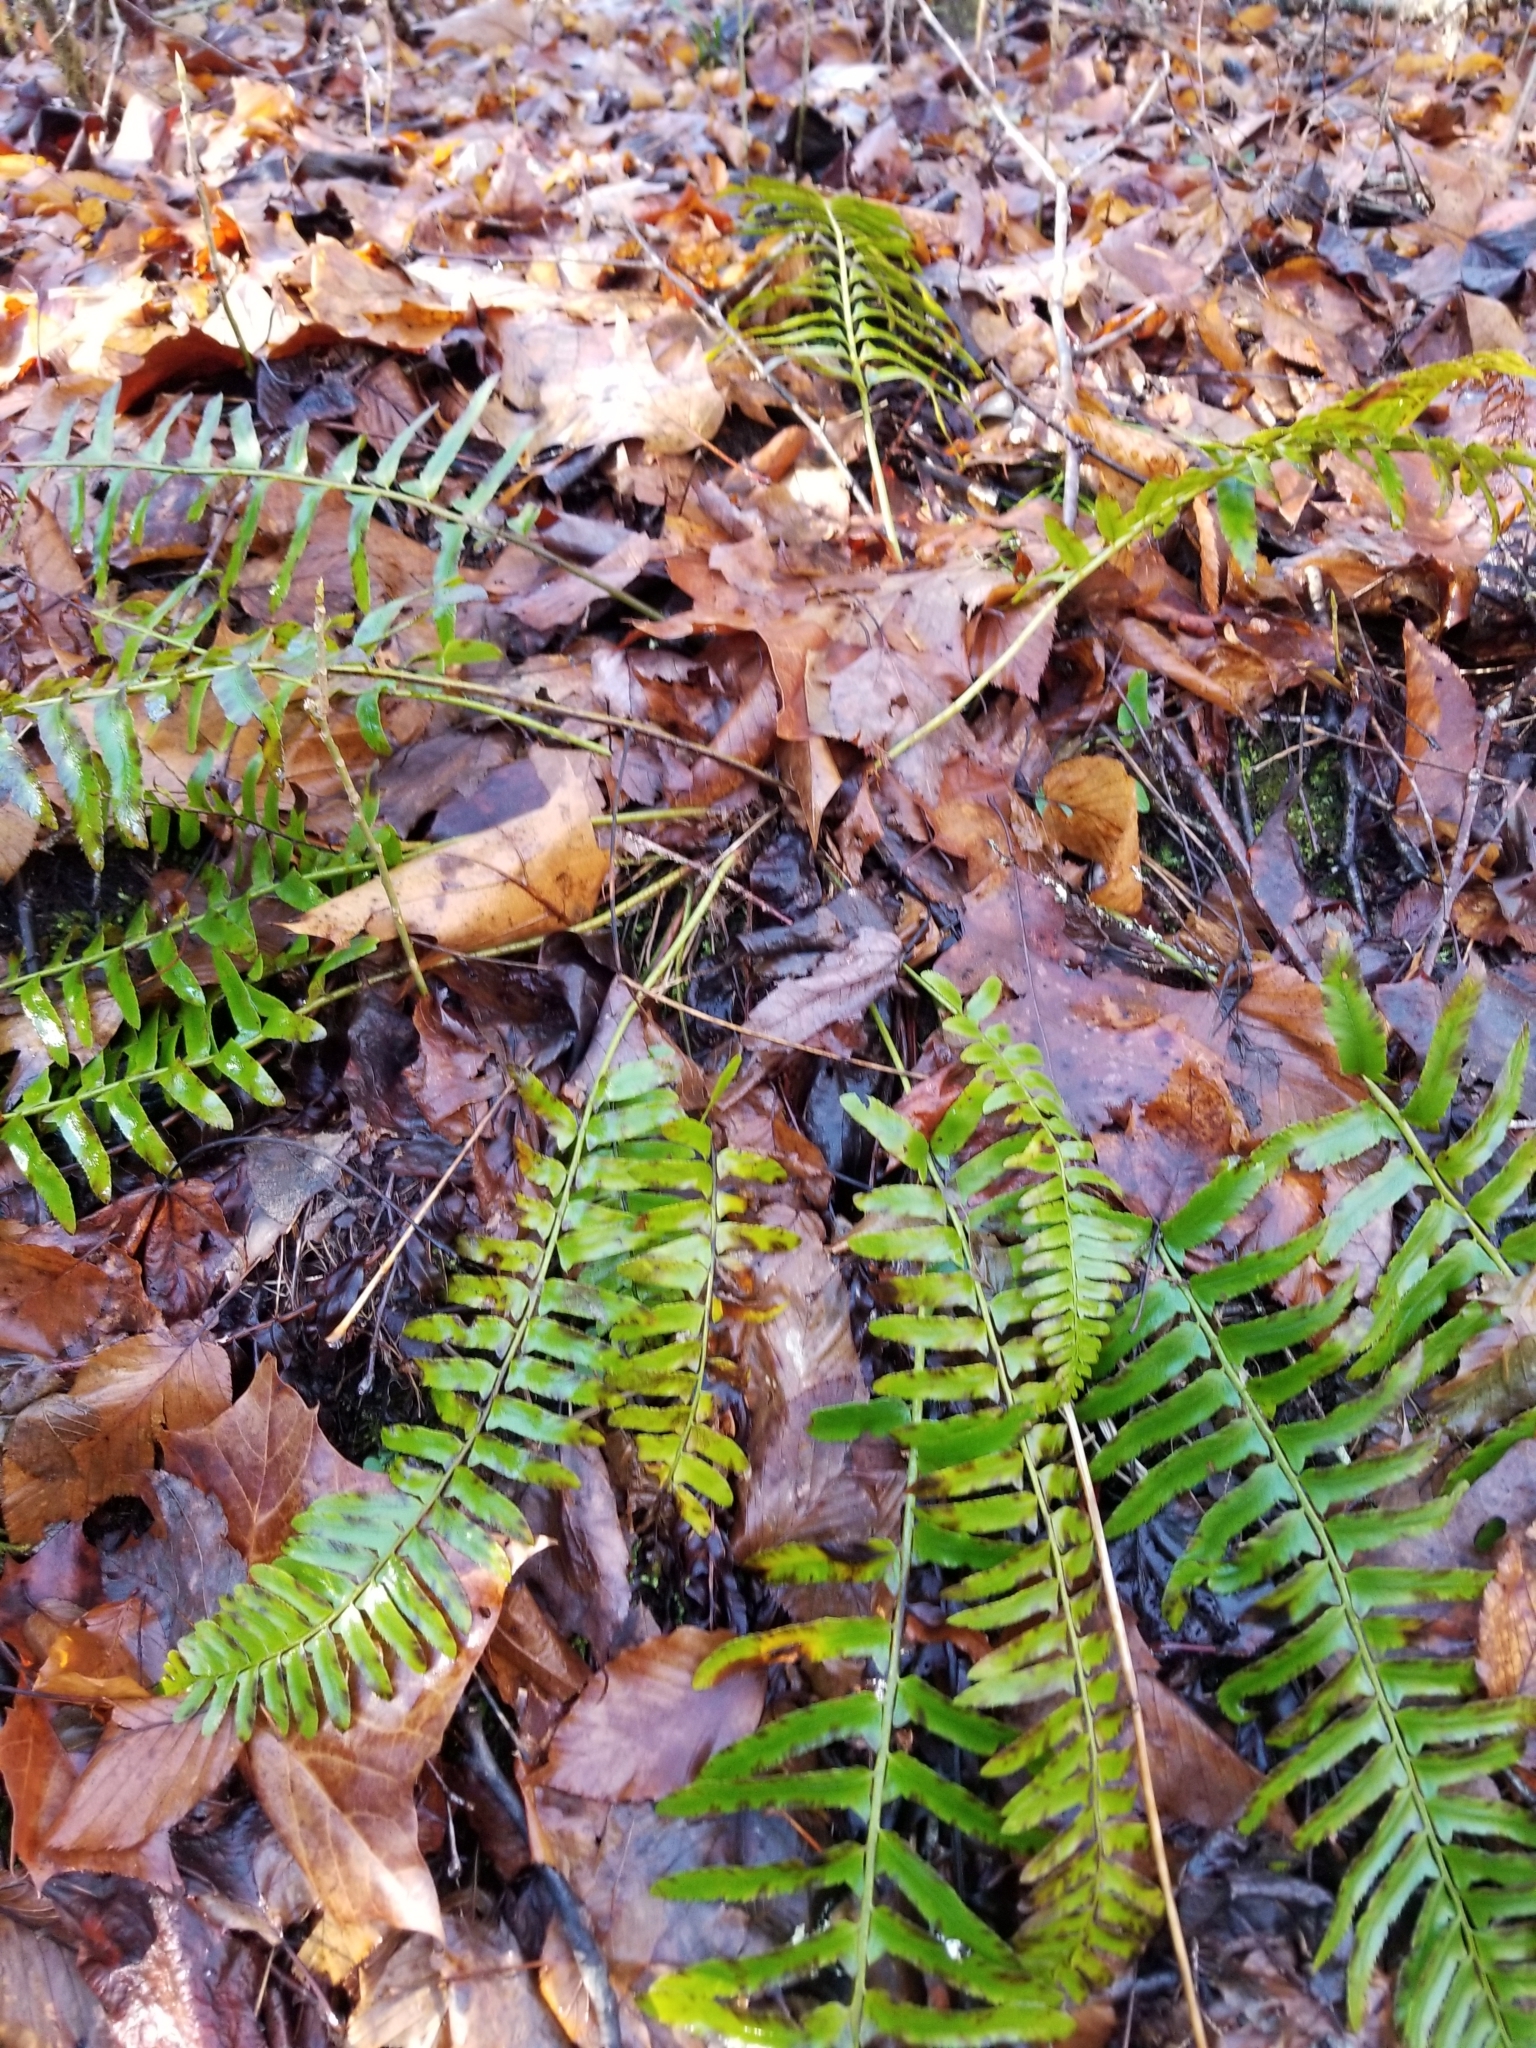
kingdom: Plantae
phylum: Tracheophyta
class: Polypodiopsida
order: Polypodiales
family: Dryopteridaceae
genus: Polystichum
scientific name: Polystichum acrostichoides
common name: Christmas fern
